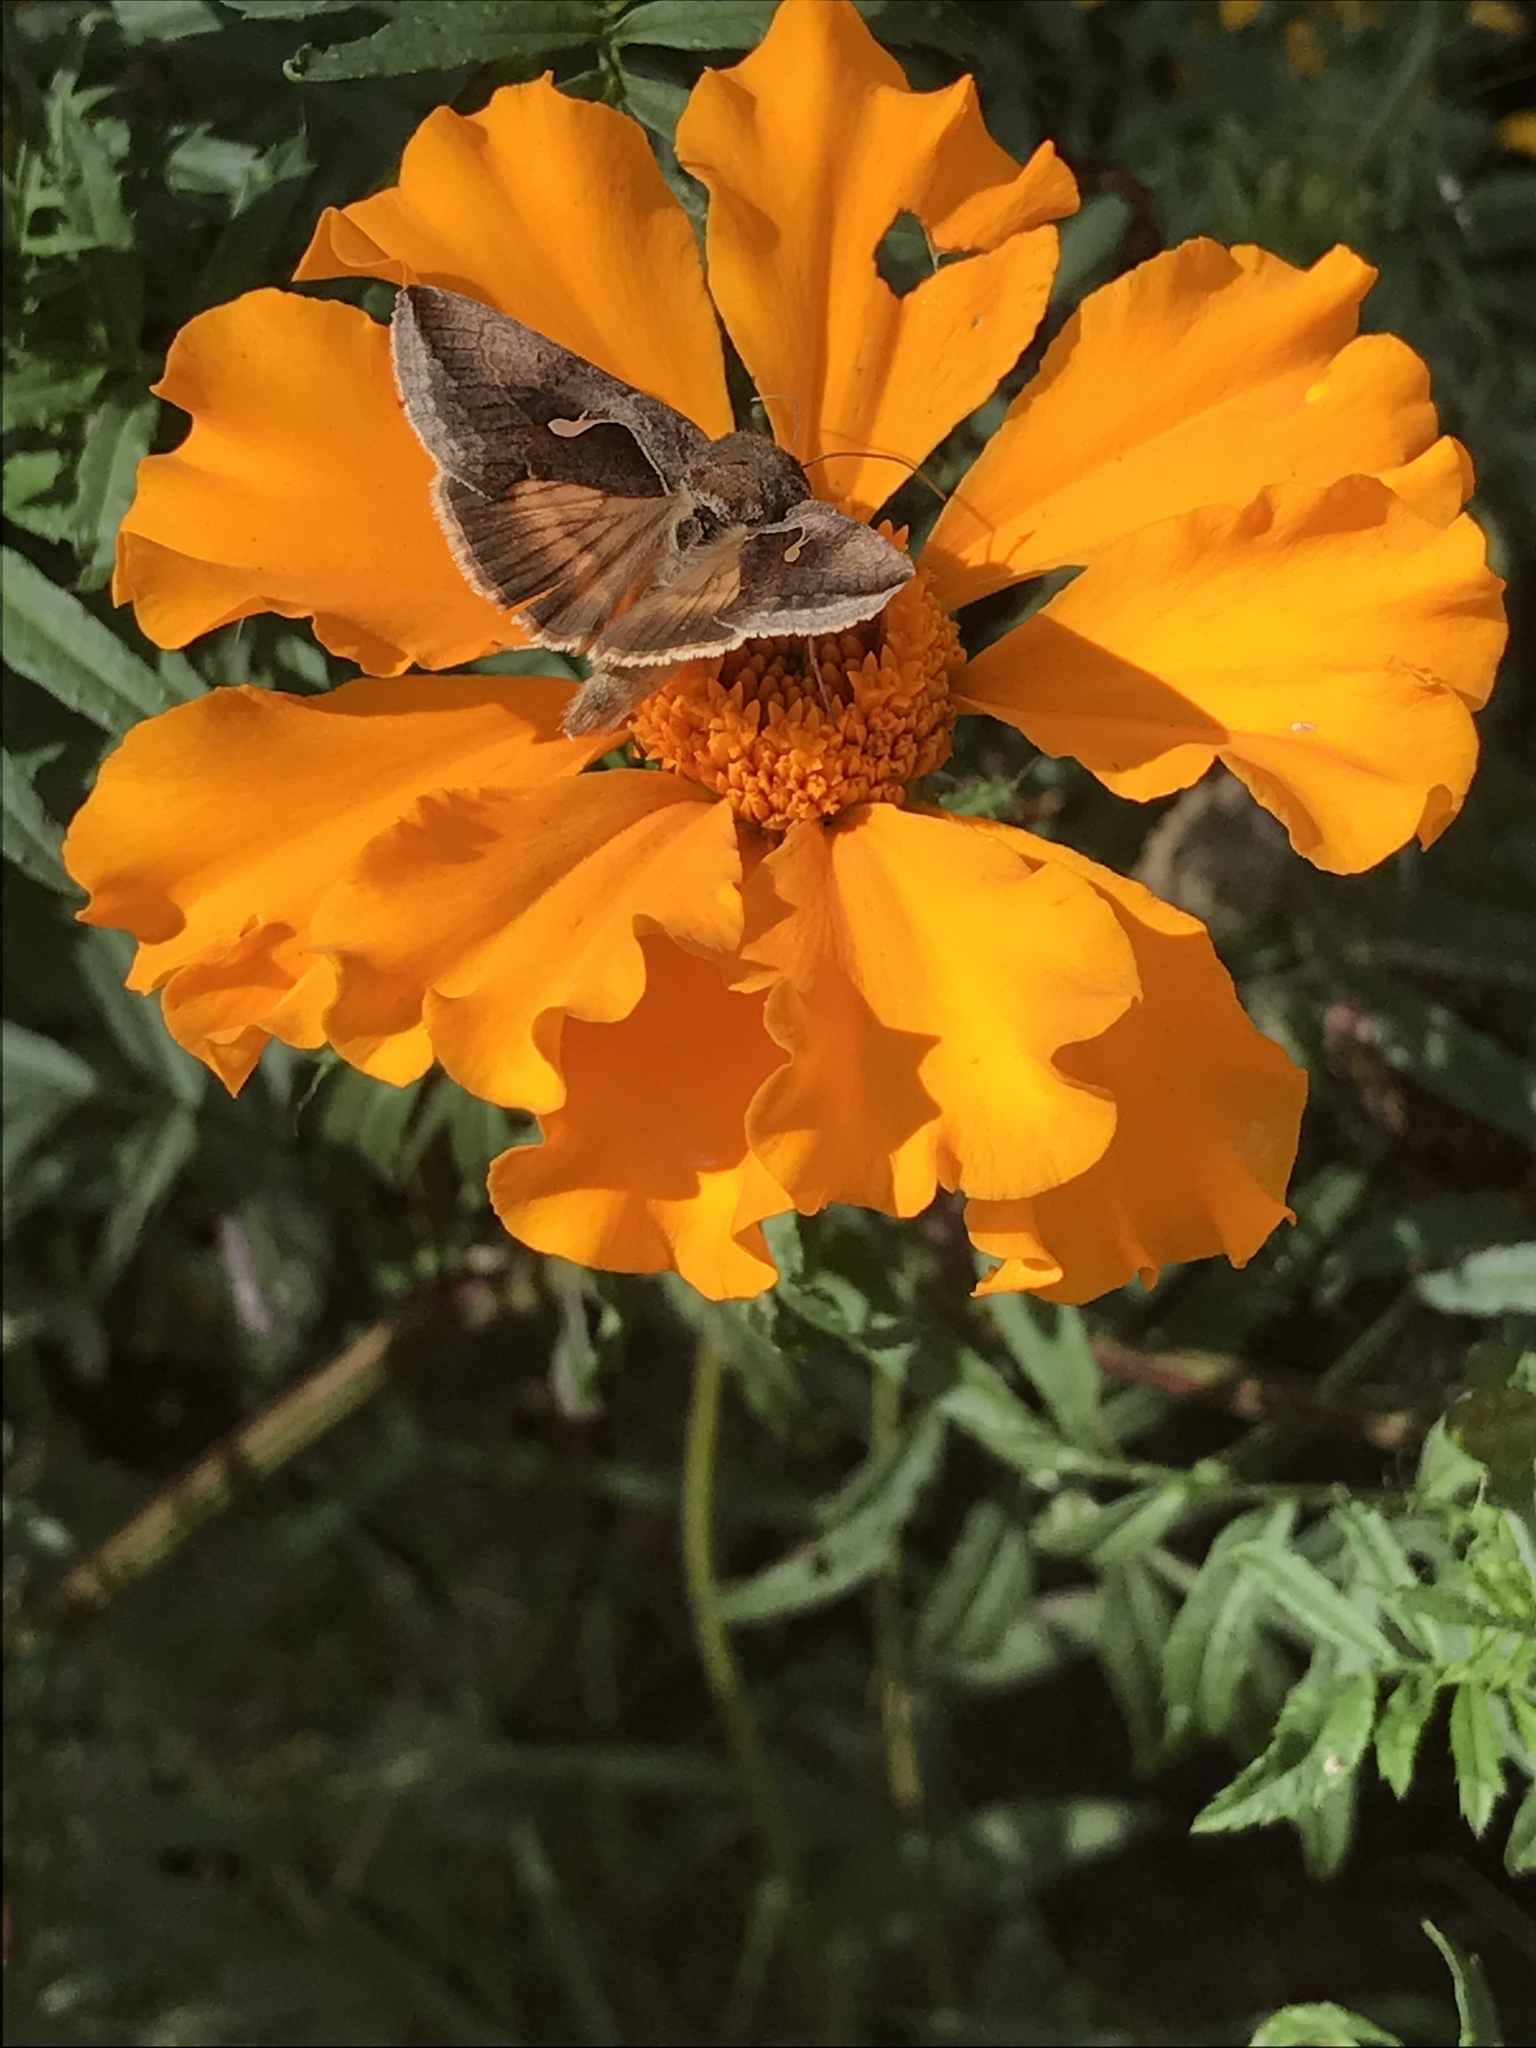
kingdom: Animalia
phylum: Arthropoda
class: Insecta
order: Lepidoptera
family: Noctuidae
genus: Anagrapha
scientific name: Anagrapha falcifera
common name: Celery looper
